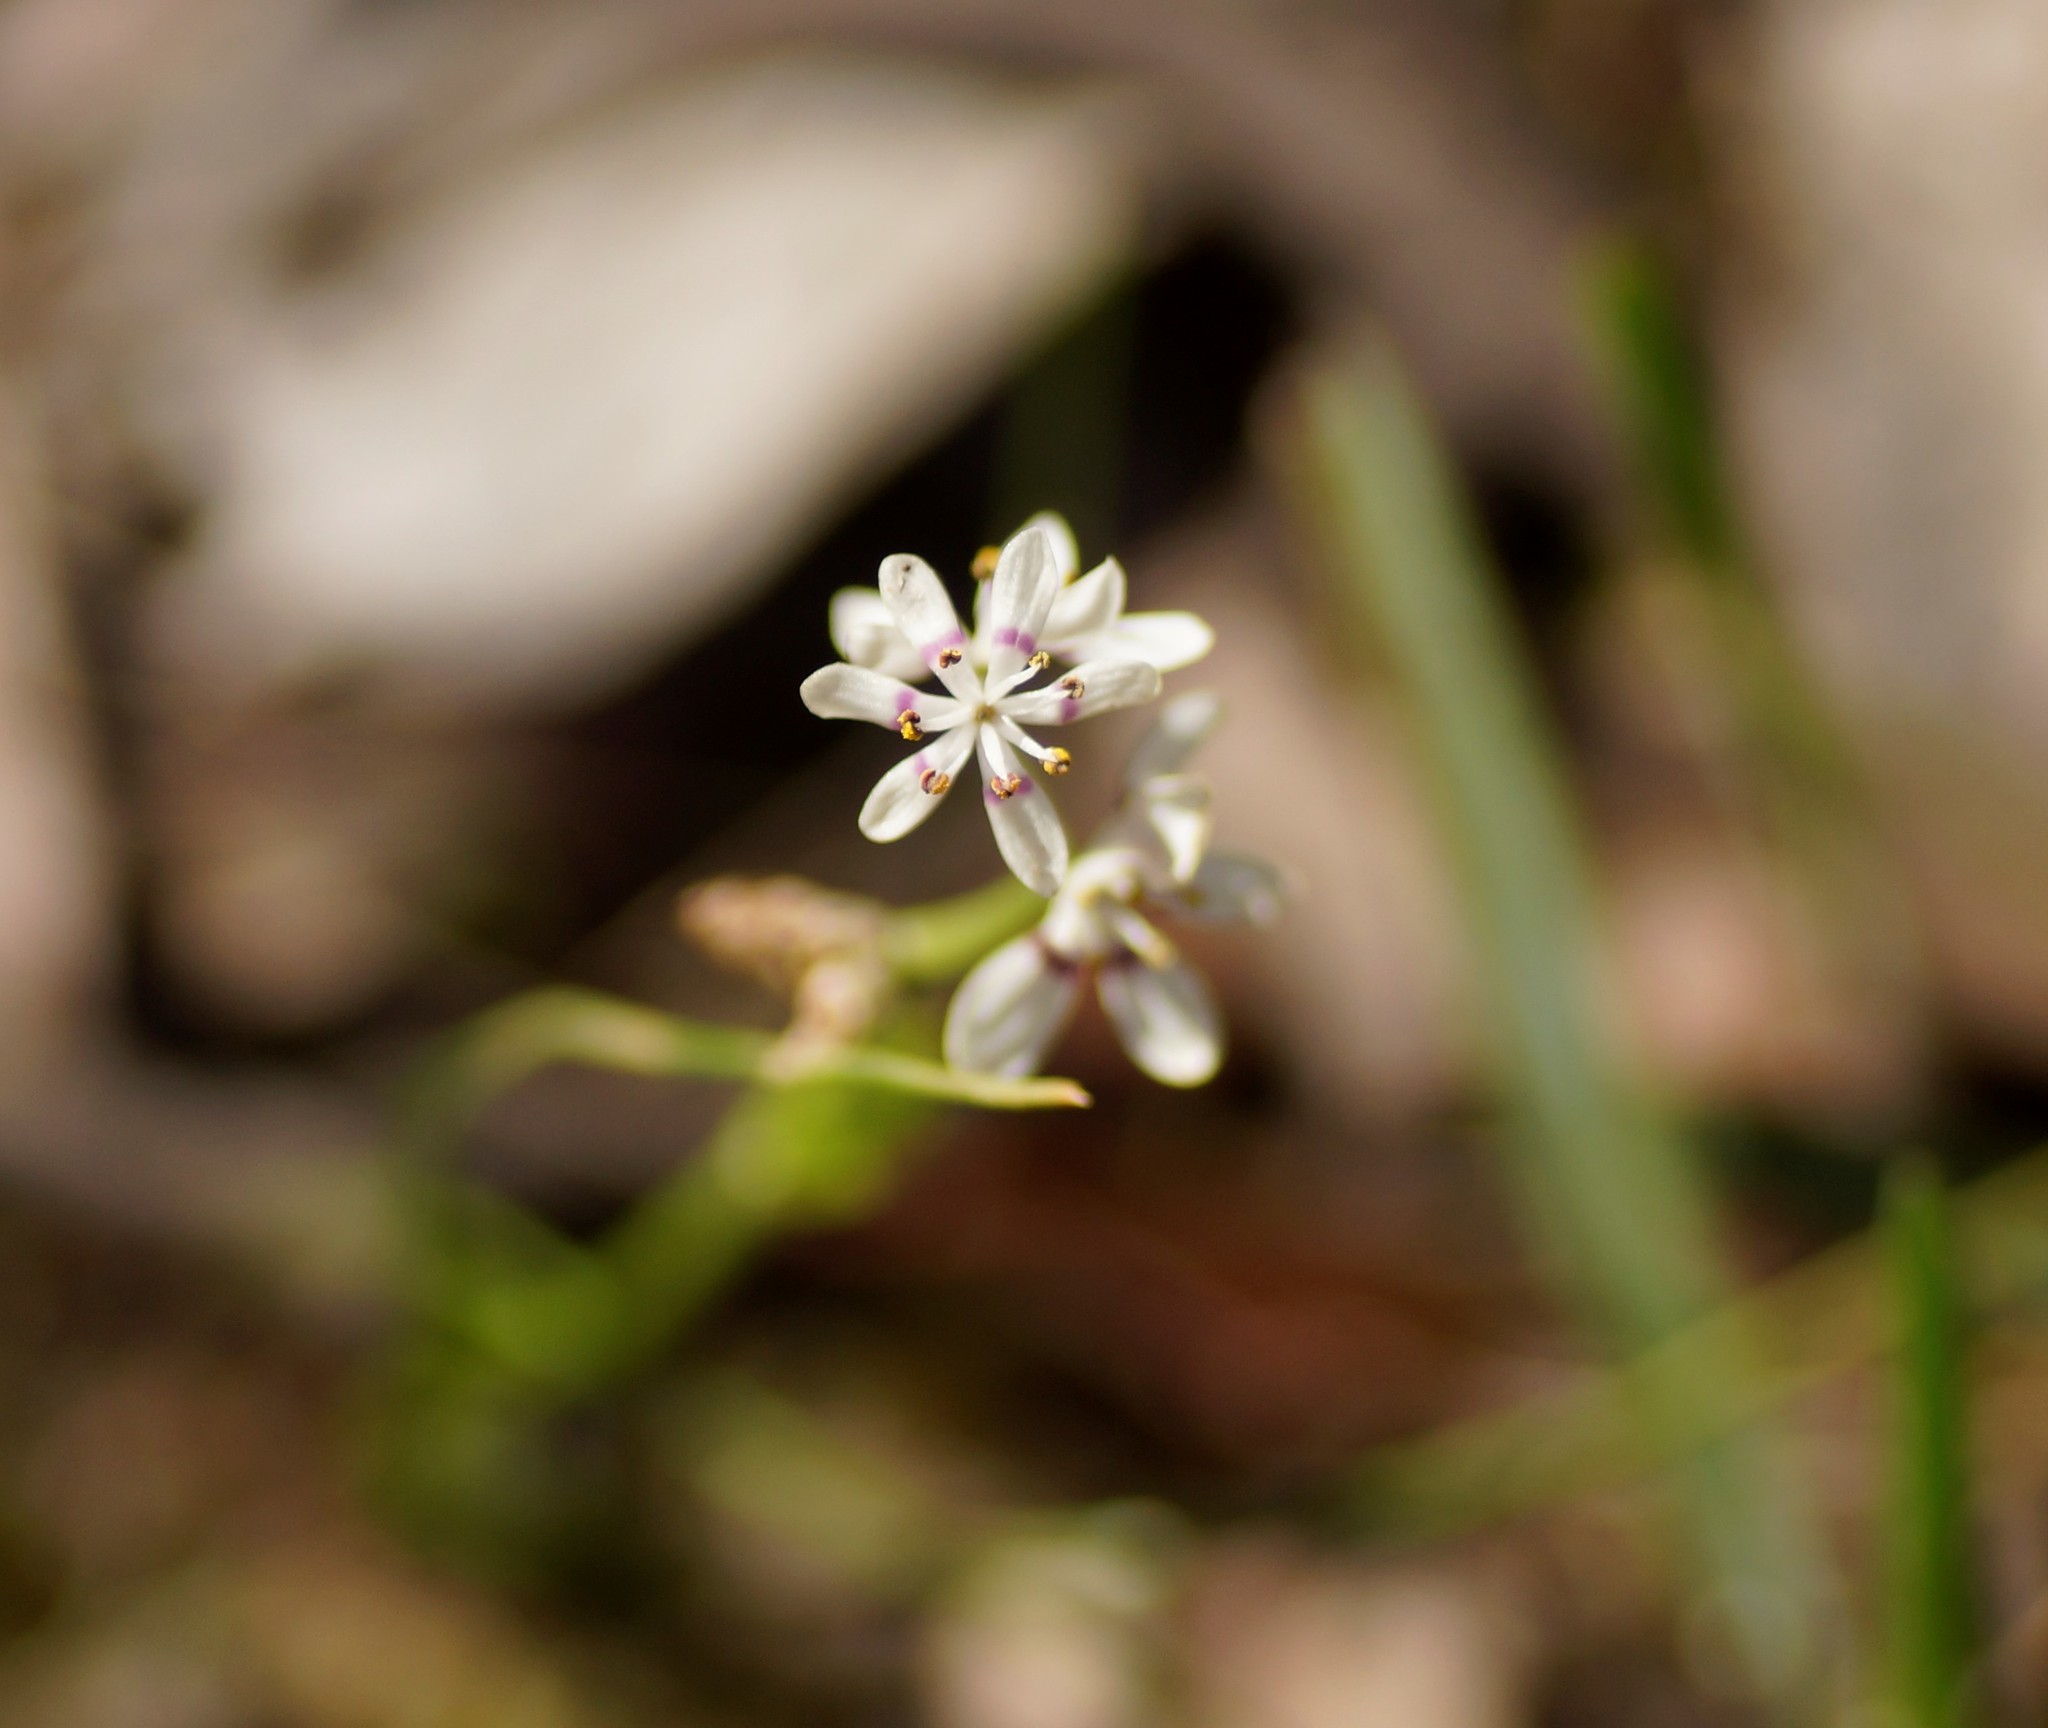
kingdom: Plantae
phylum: Tracheophyta
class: Liliopsida
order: Liliales
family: Colchicaceae
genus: Wurmbea
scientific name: Wurmbea dioica
